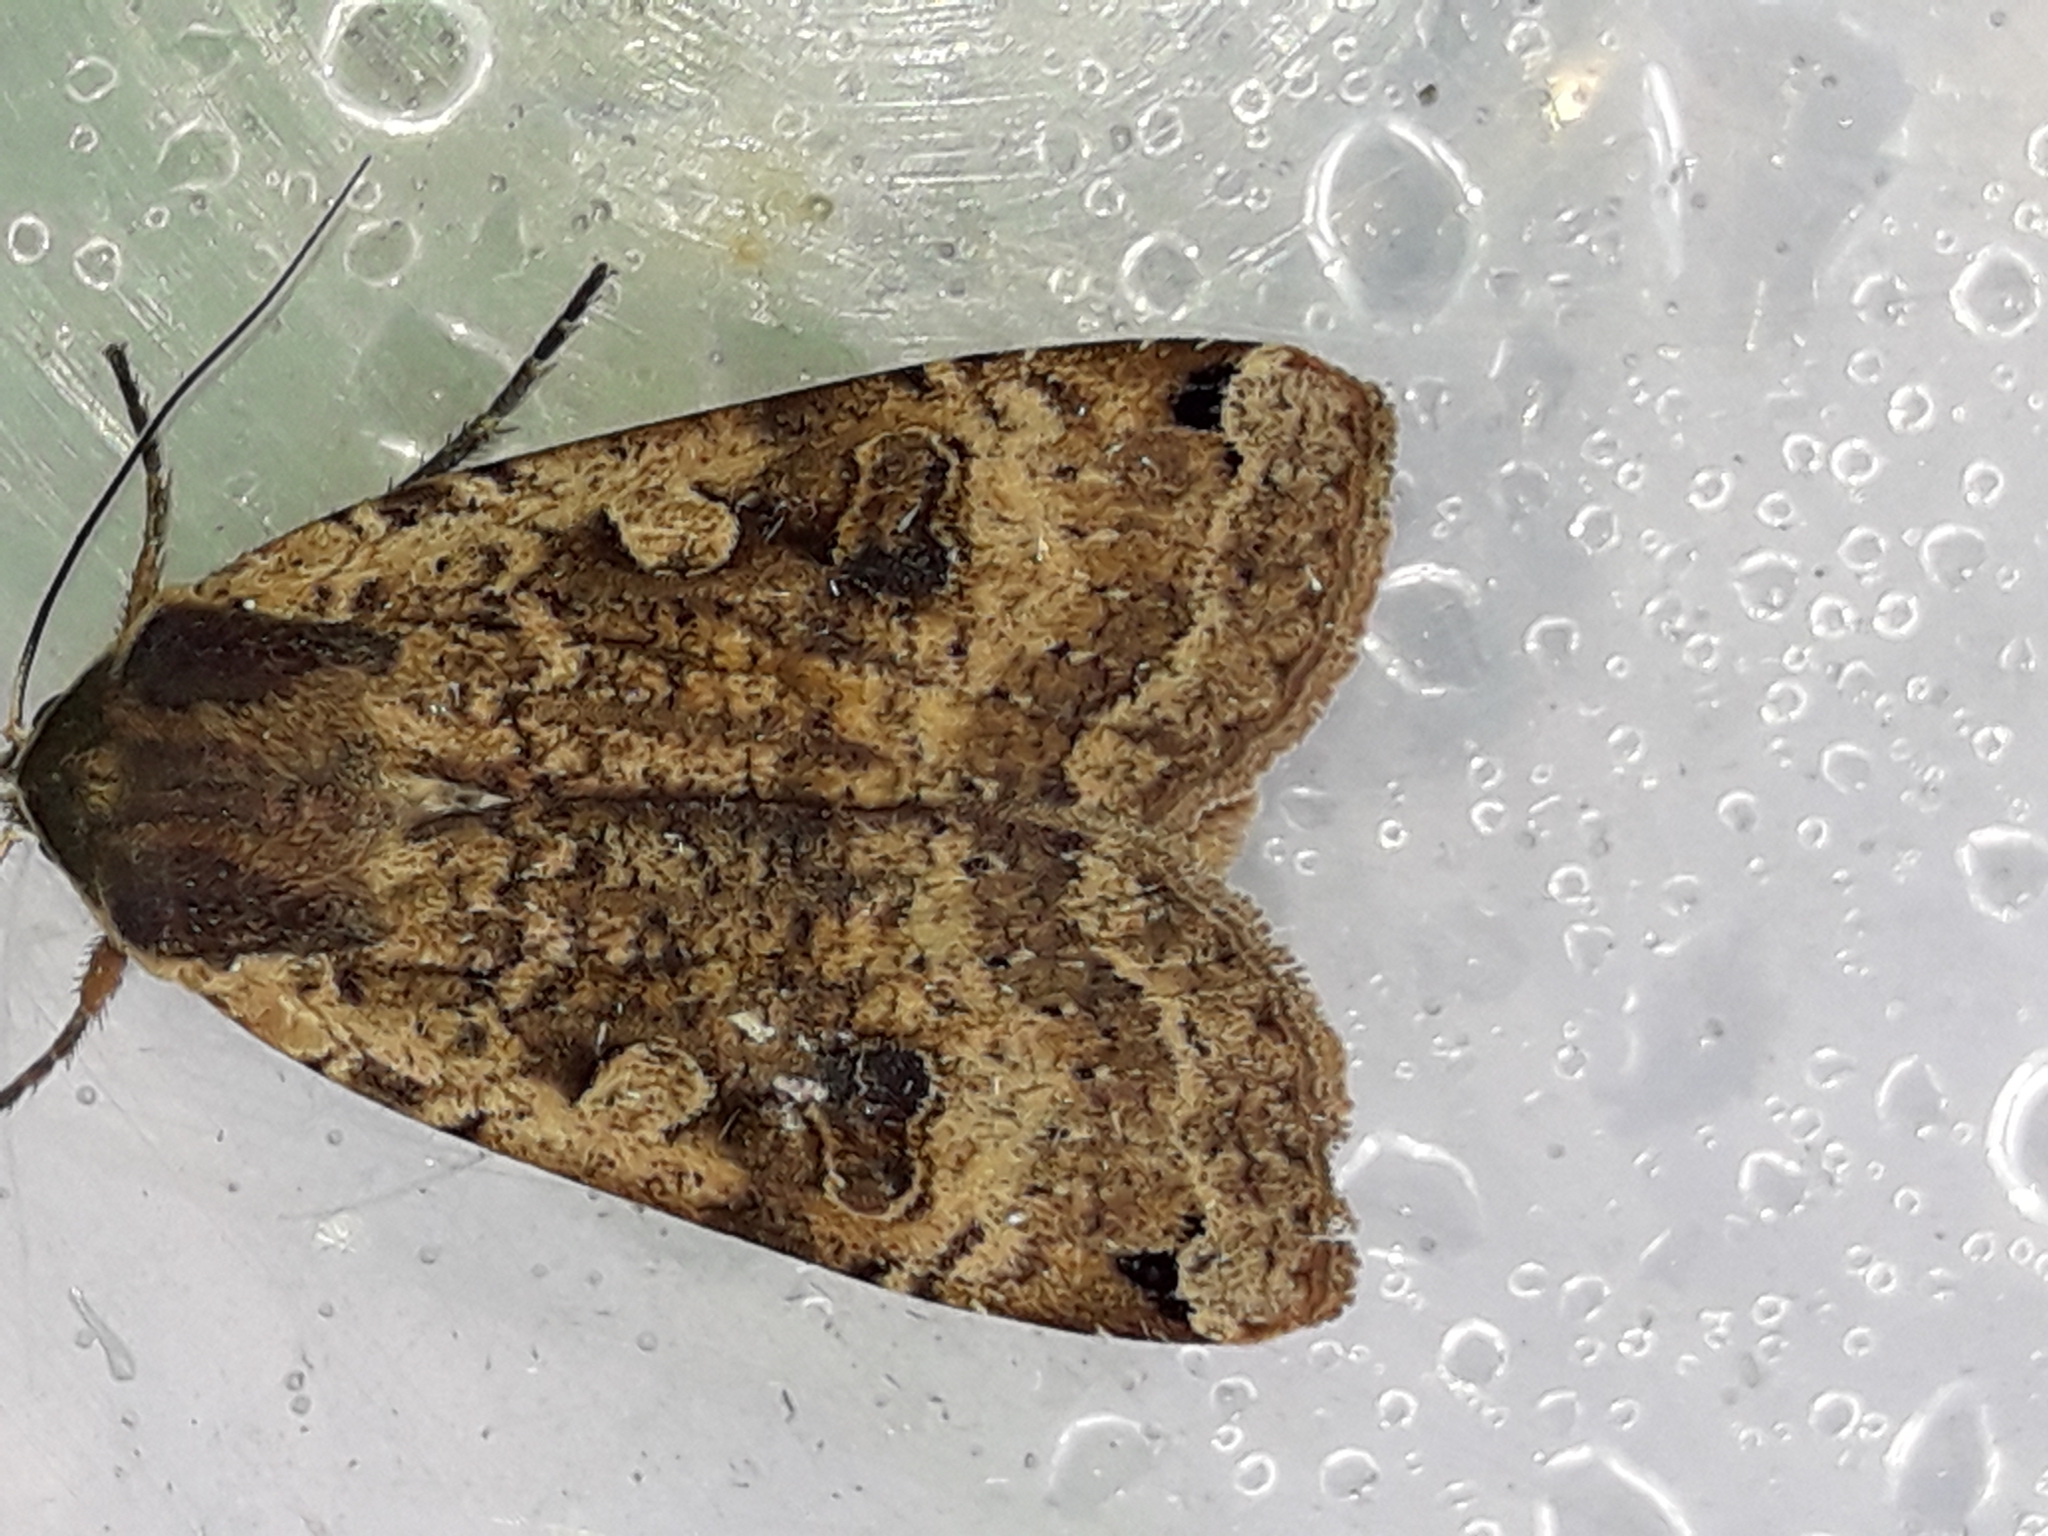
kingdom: Animalia
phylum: Arthropoda
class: Insecta
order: Lepidoptera
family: Noctuidae
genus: Noctua
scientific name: Noctua pronuba
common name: Large yellow underwing
